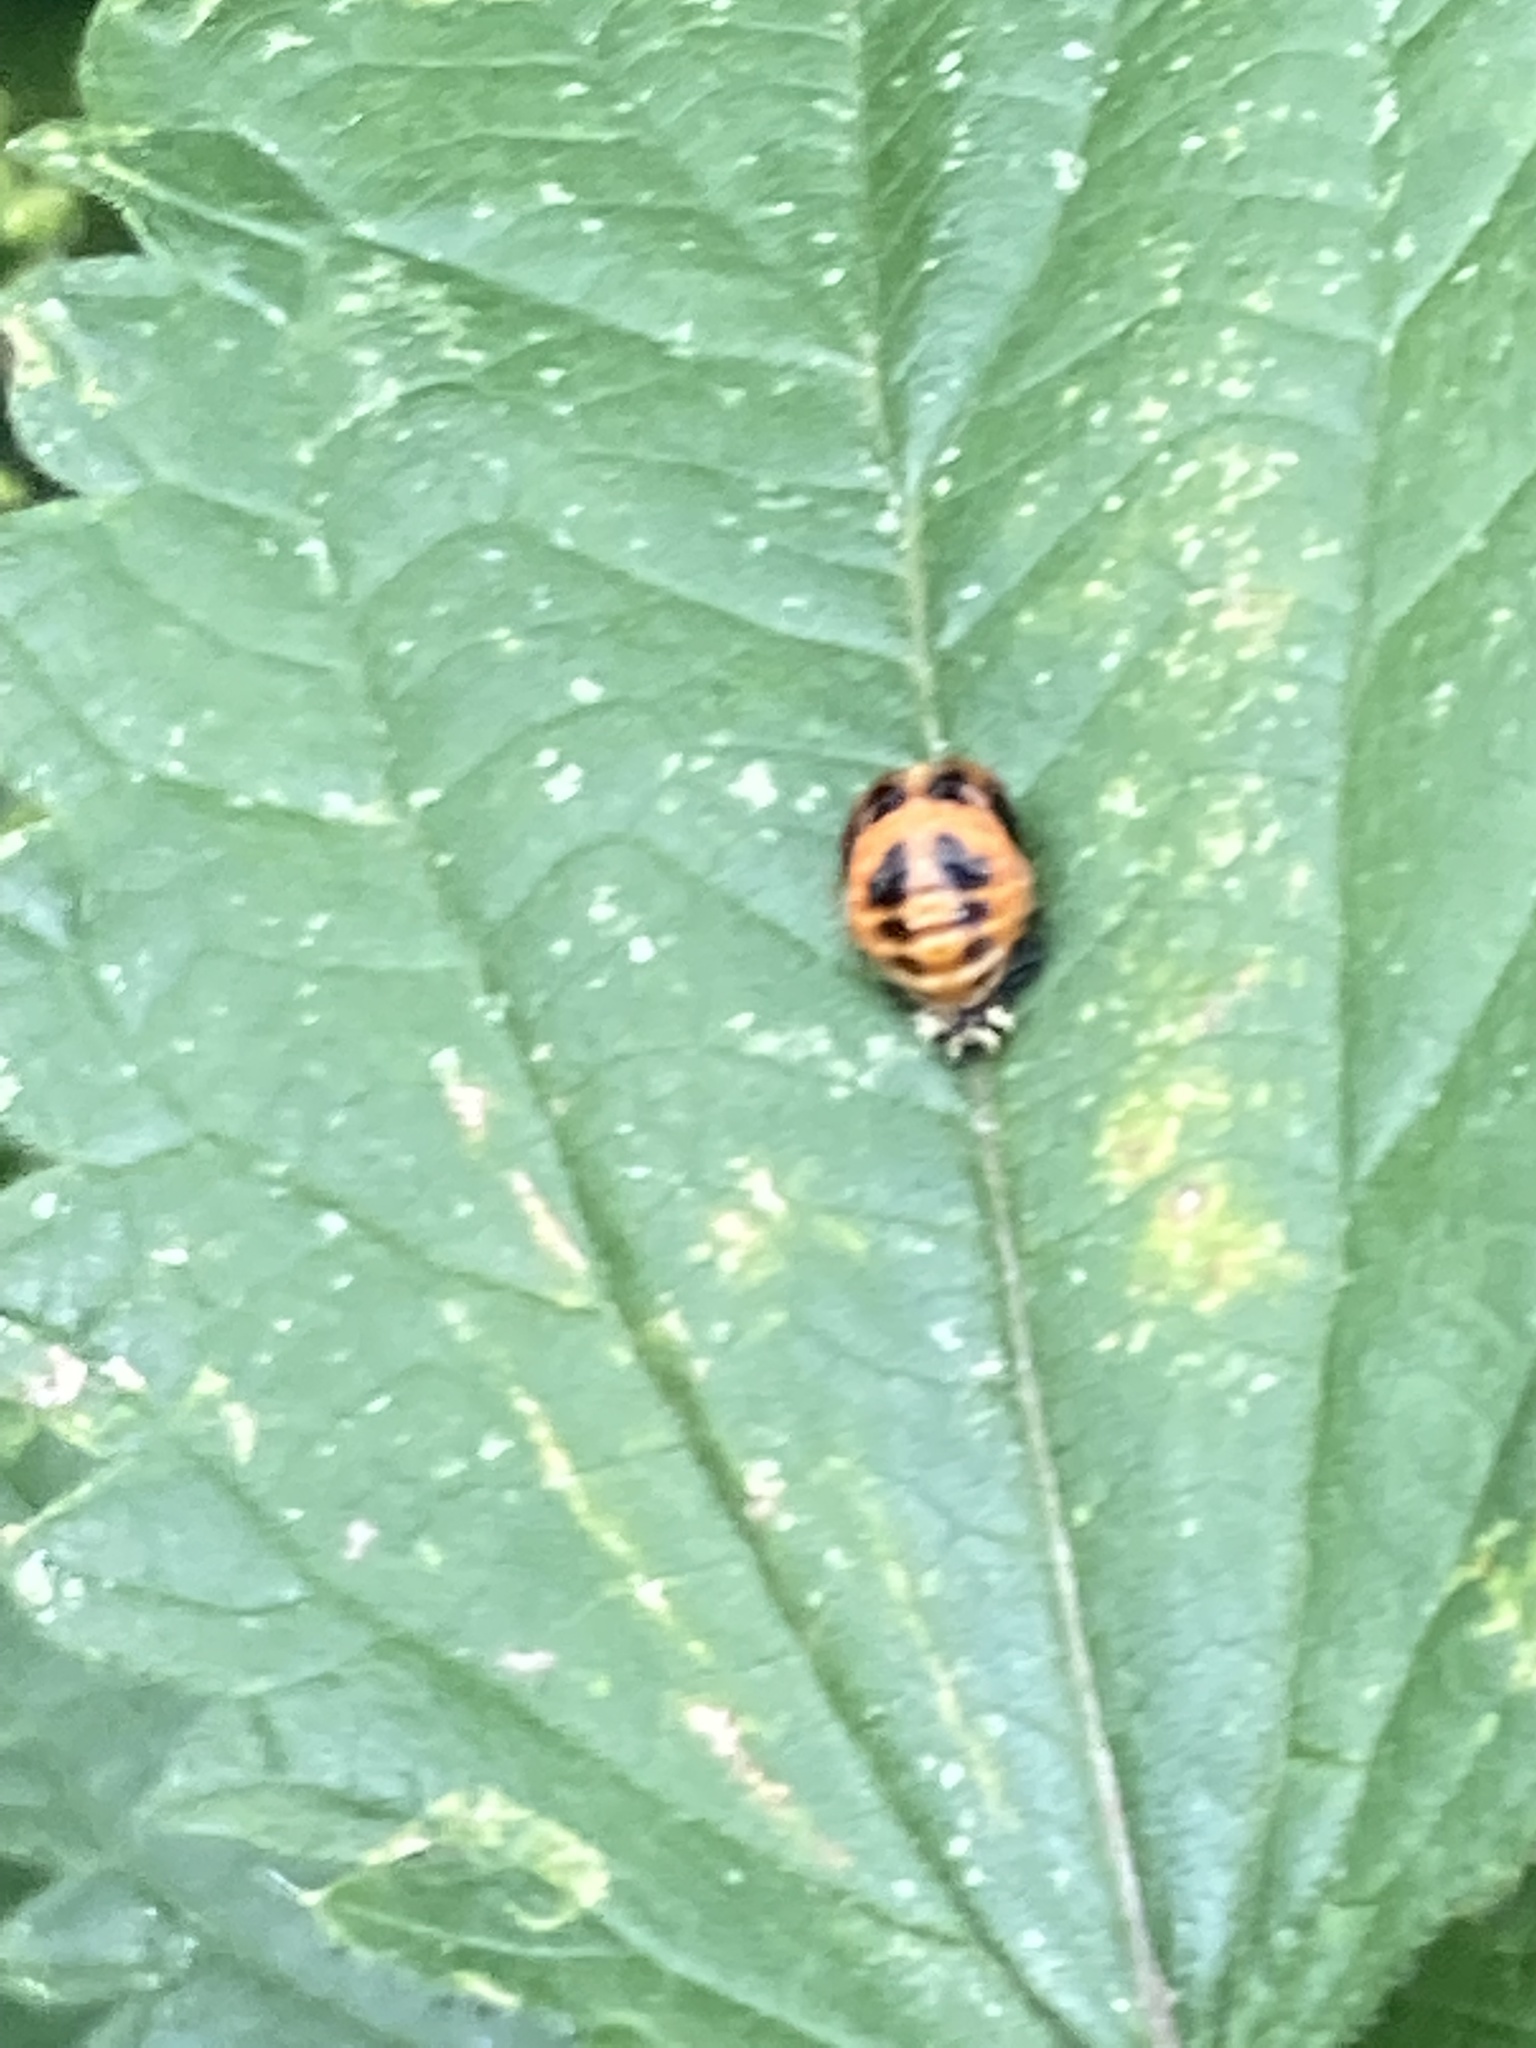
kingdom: Animalia
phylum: Arthropoda
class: Insecta
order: Coleoptera
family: Coccinellidae
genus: Harmonia
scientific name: Harmonia axyridis
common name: Harlequin ladybird
